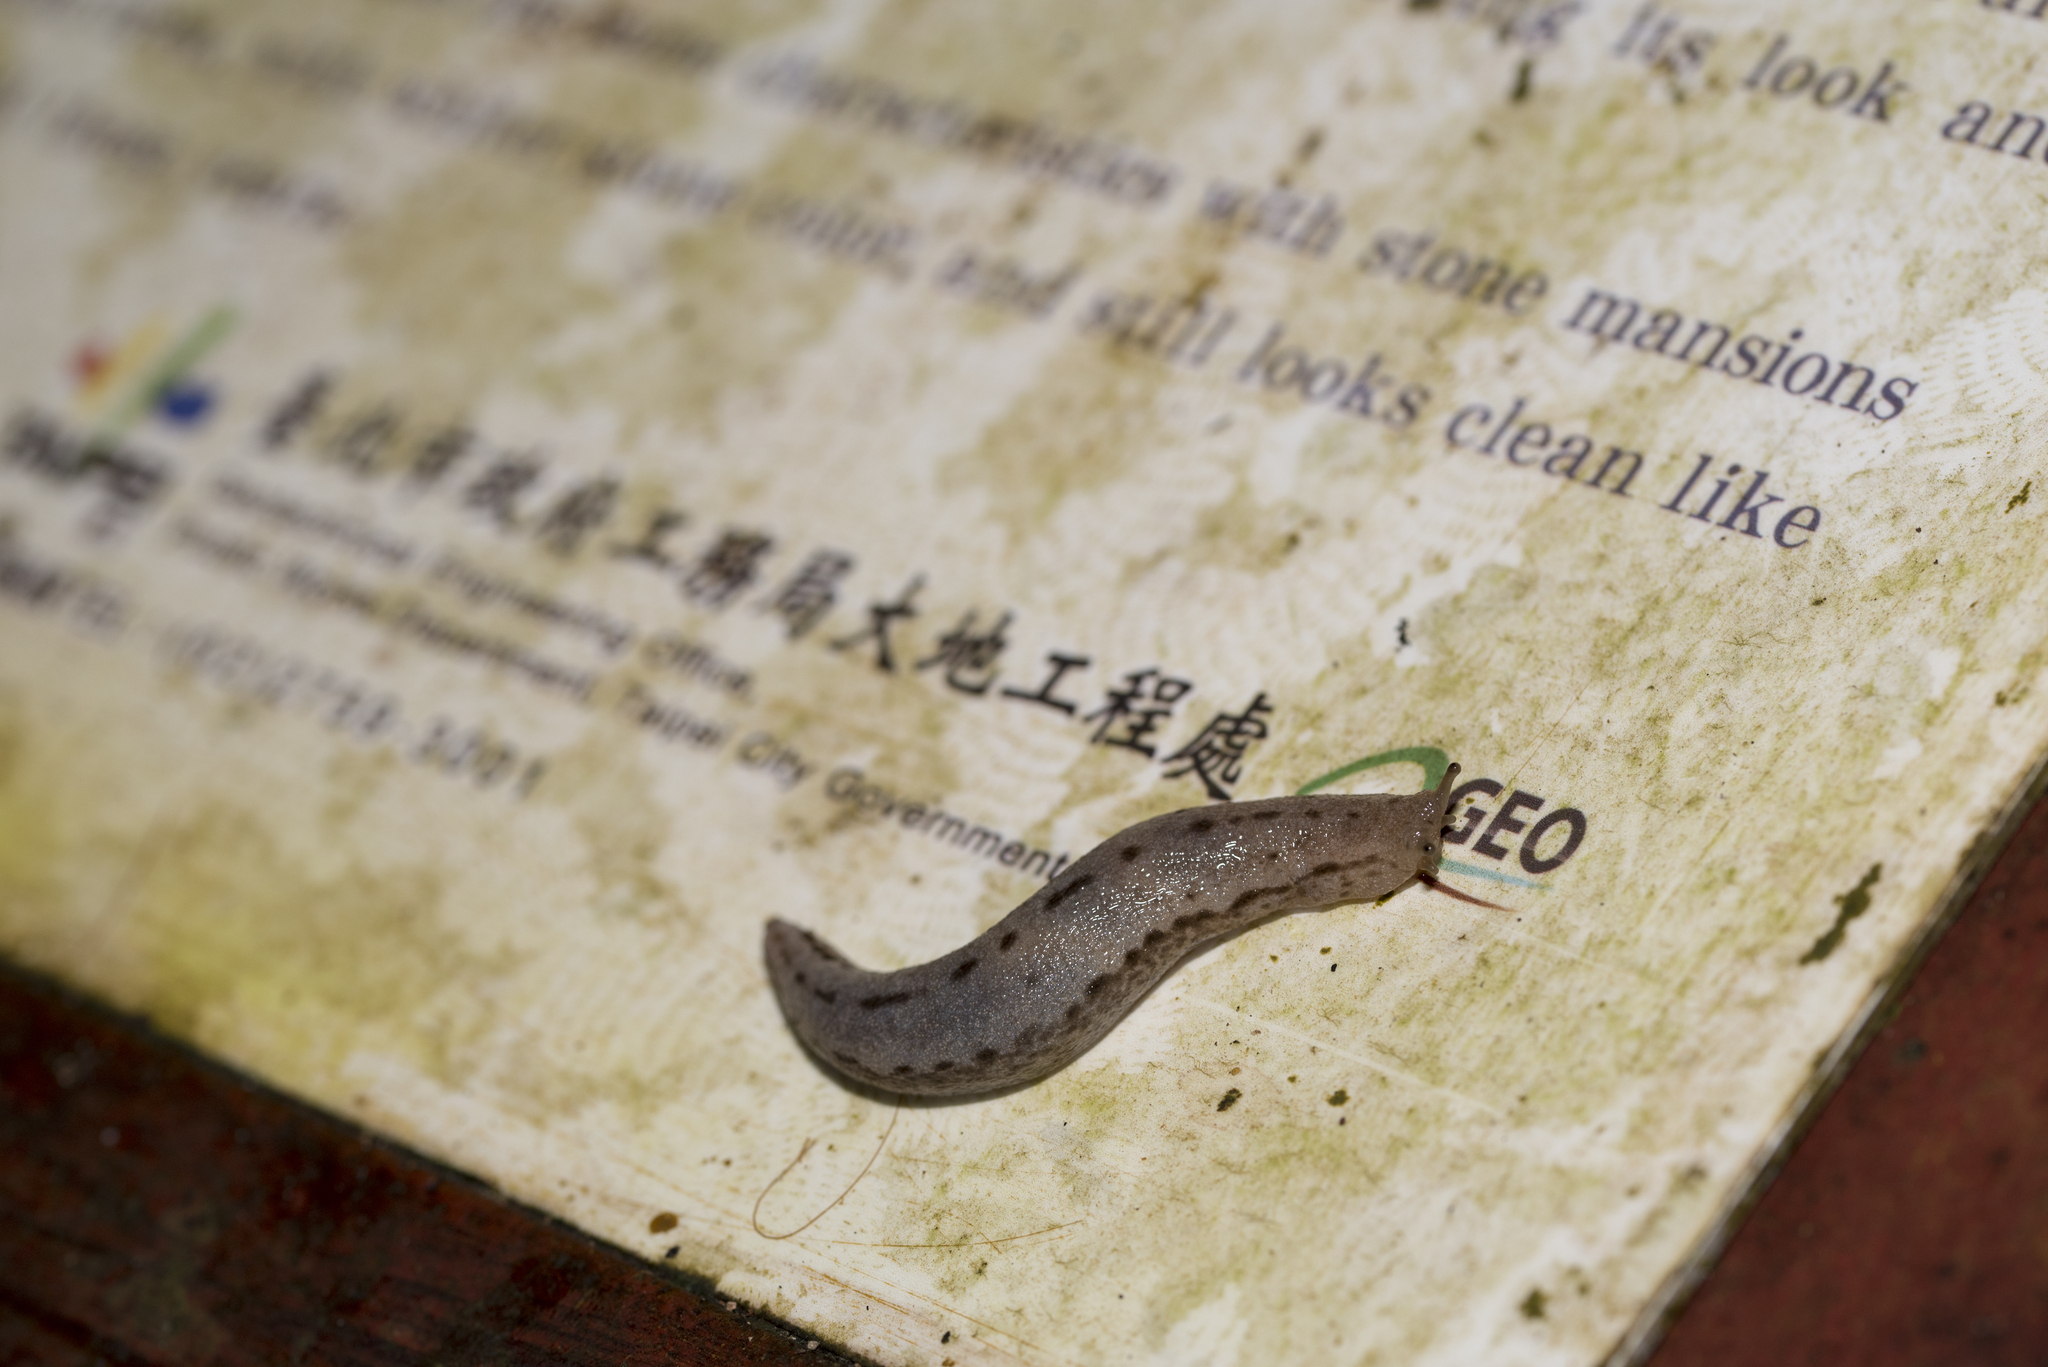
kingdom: Animalia
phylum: Mollusca
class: Gastropoda
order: Stylommatophora
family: Philomycidae
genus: Meghimatium
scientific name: Meghimatium bilineatum
